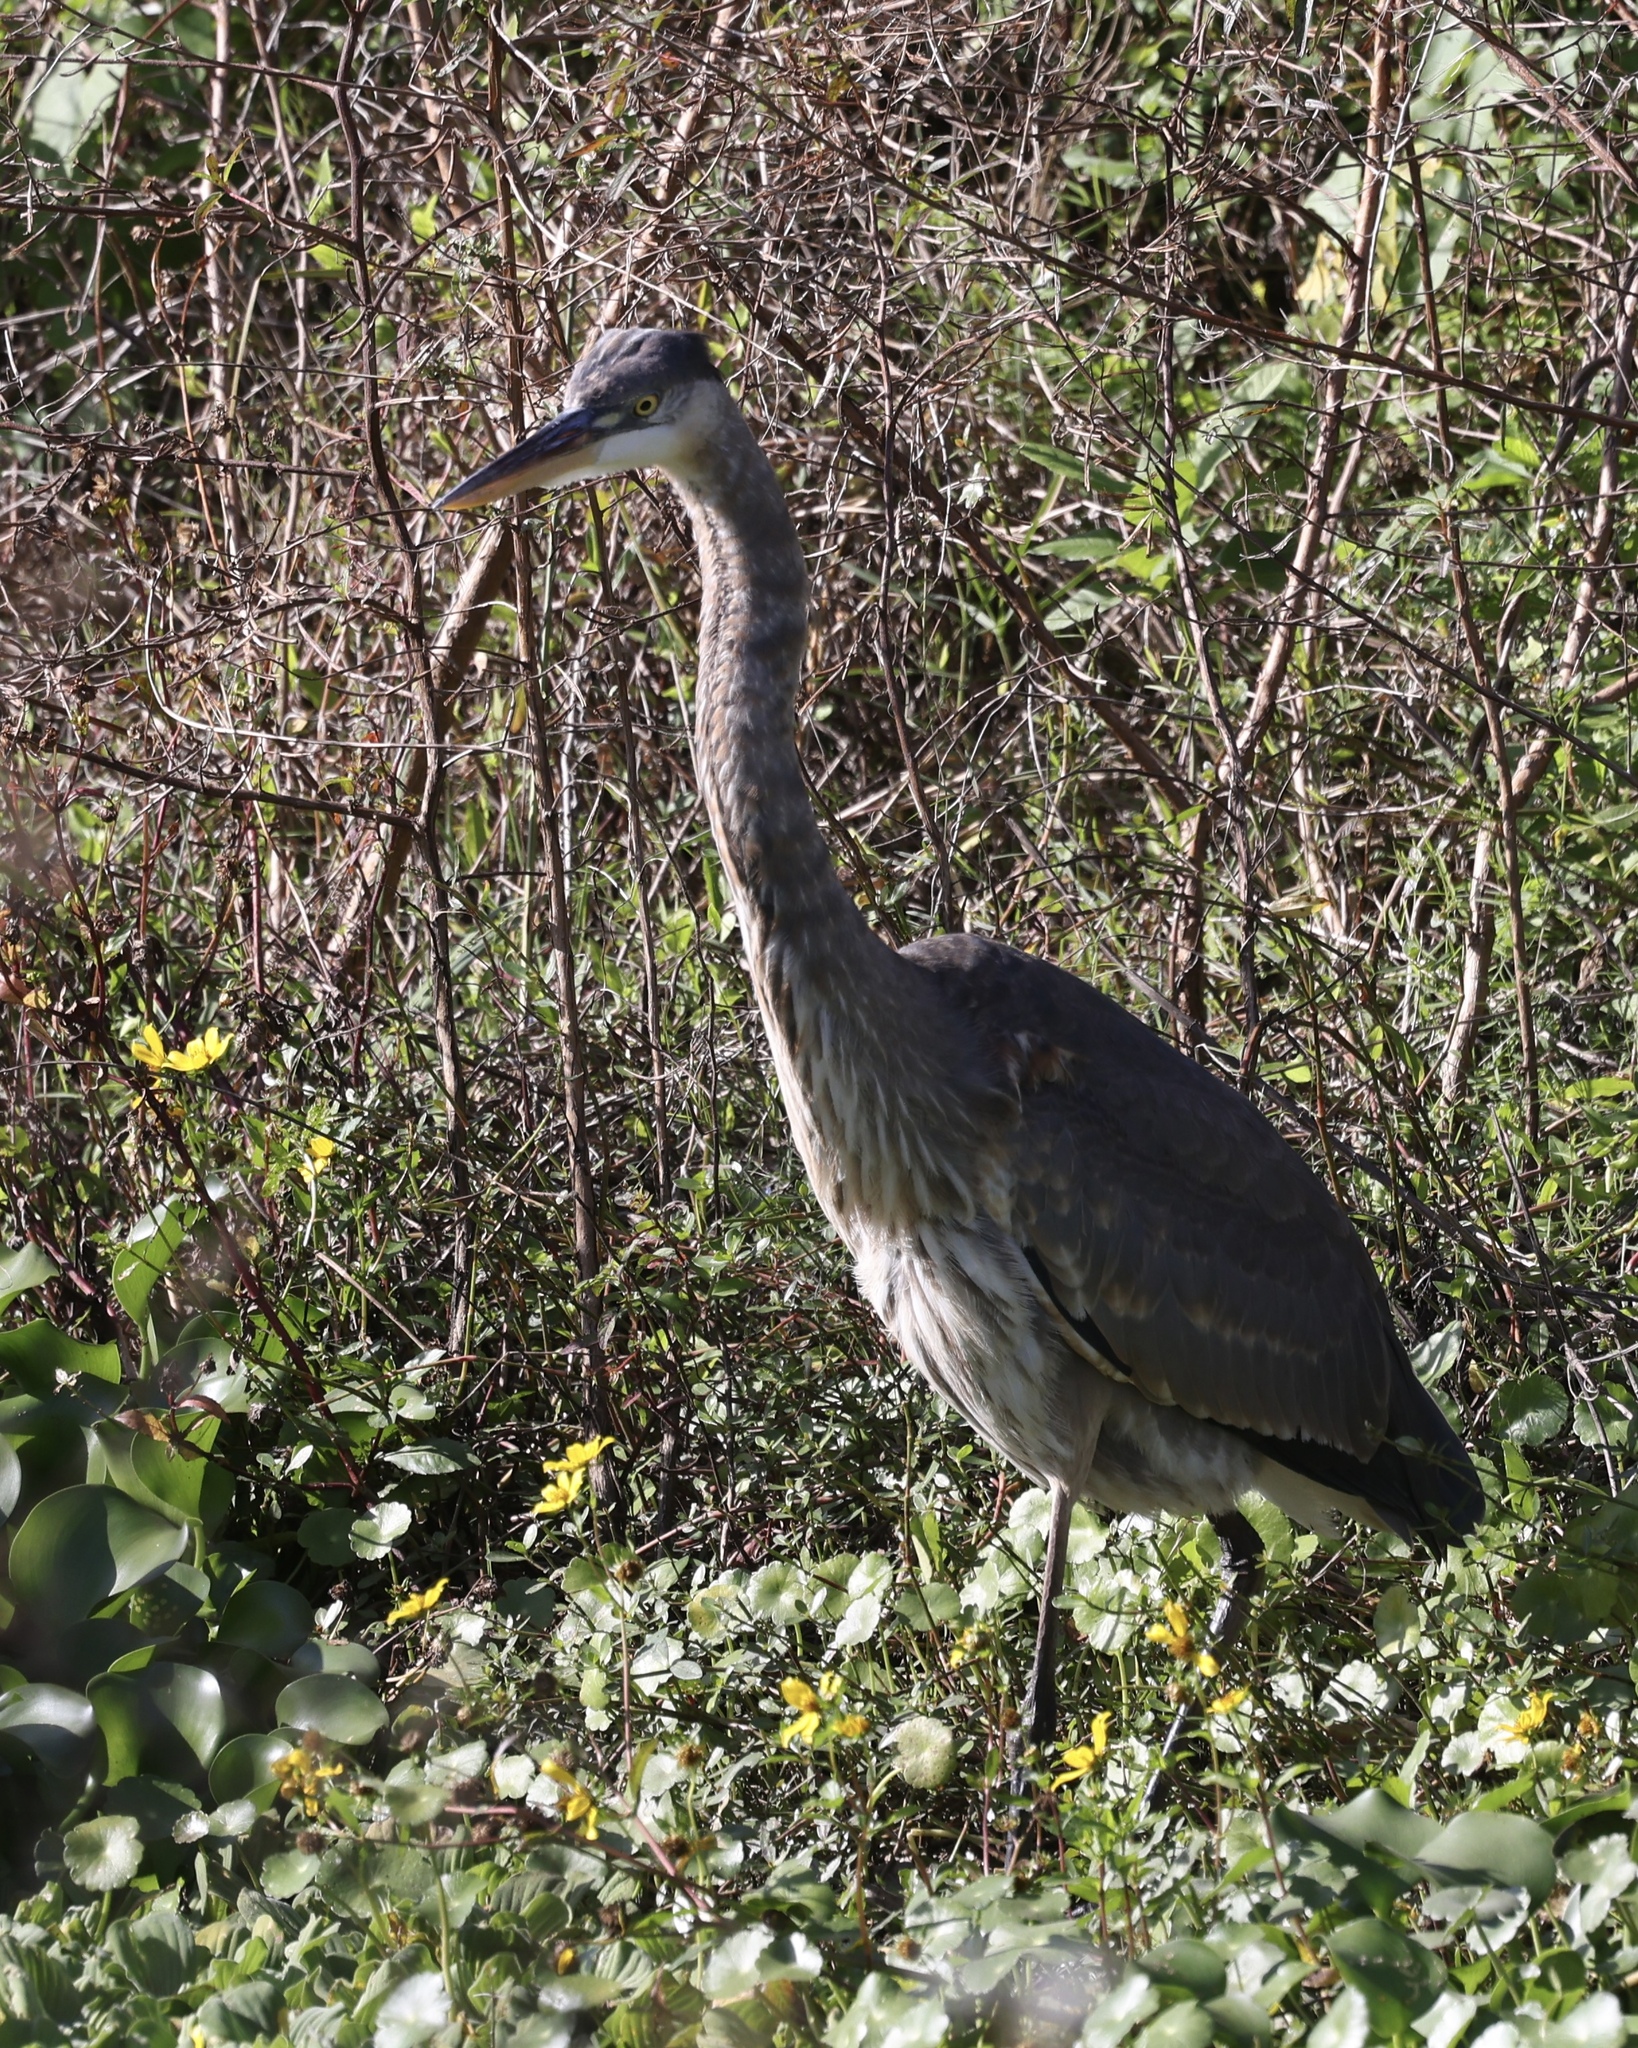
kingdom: Animalia
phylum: Chordata
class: Aves
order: Pelecaniformes
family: Ardeidae
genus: Ardea
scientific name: Ardea herodias
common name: Great blue heron
